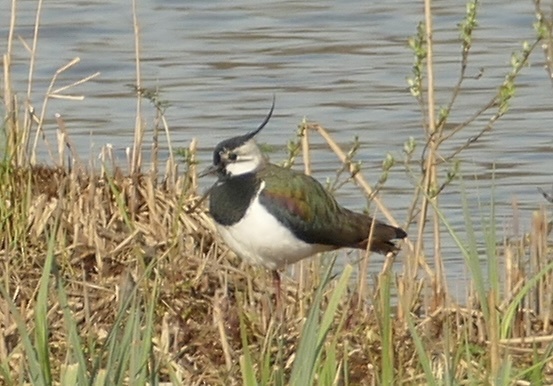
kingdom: Animalia
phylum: Chordata
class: Aves
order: Charadriiformes
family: Charadriidae
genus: Vanellus
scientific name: Vanellus vanellus
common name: Northern lapwing
